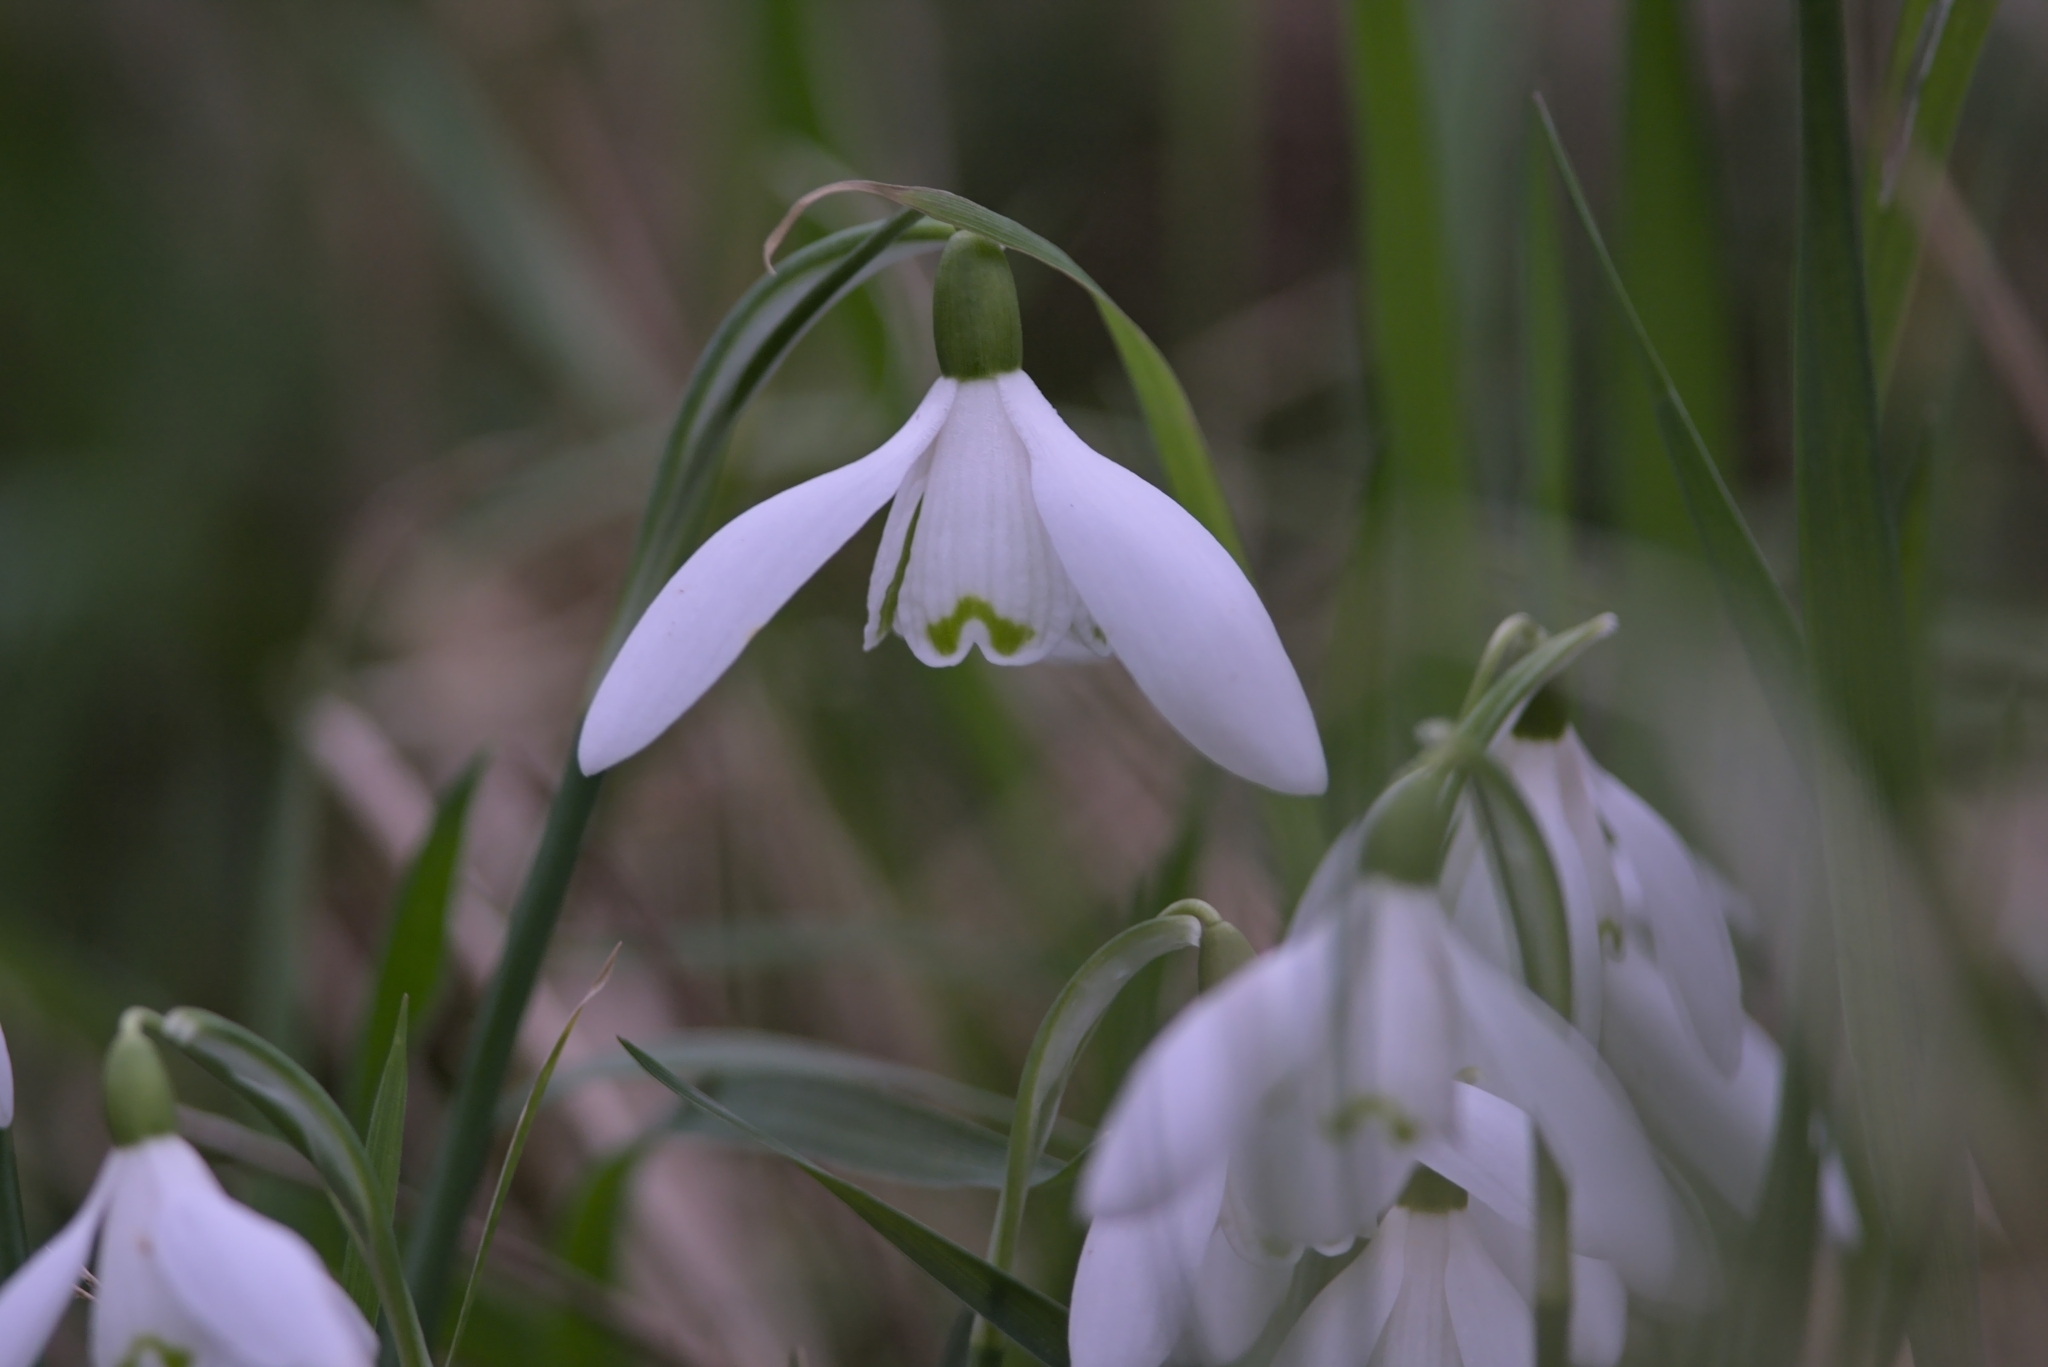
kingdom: Plantae
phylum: Tracheophyta
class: Liliopsida
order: Asparagales
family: Amaryllidaceae
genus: Galanthus
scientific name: Galanthus nivalis
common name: Snowdrop
